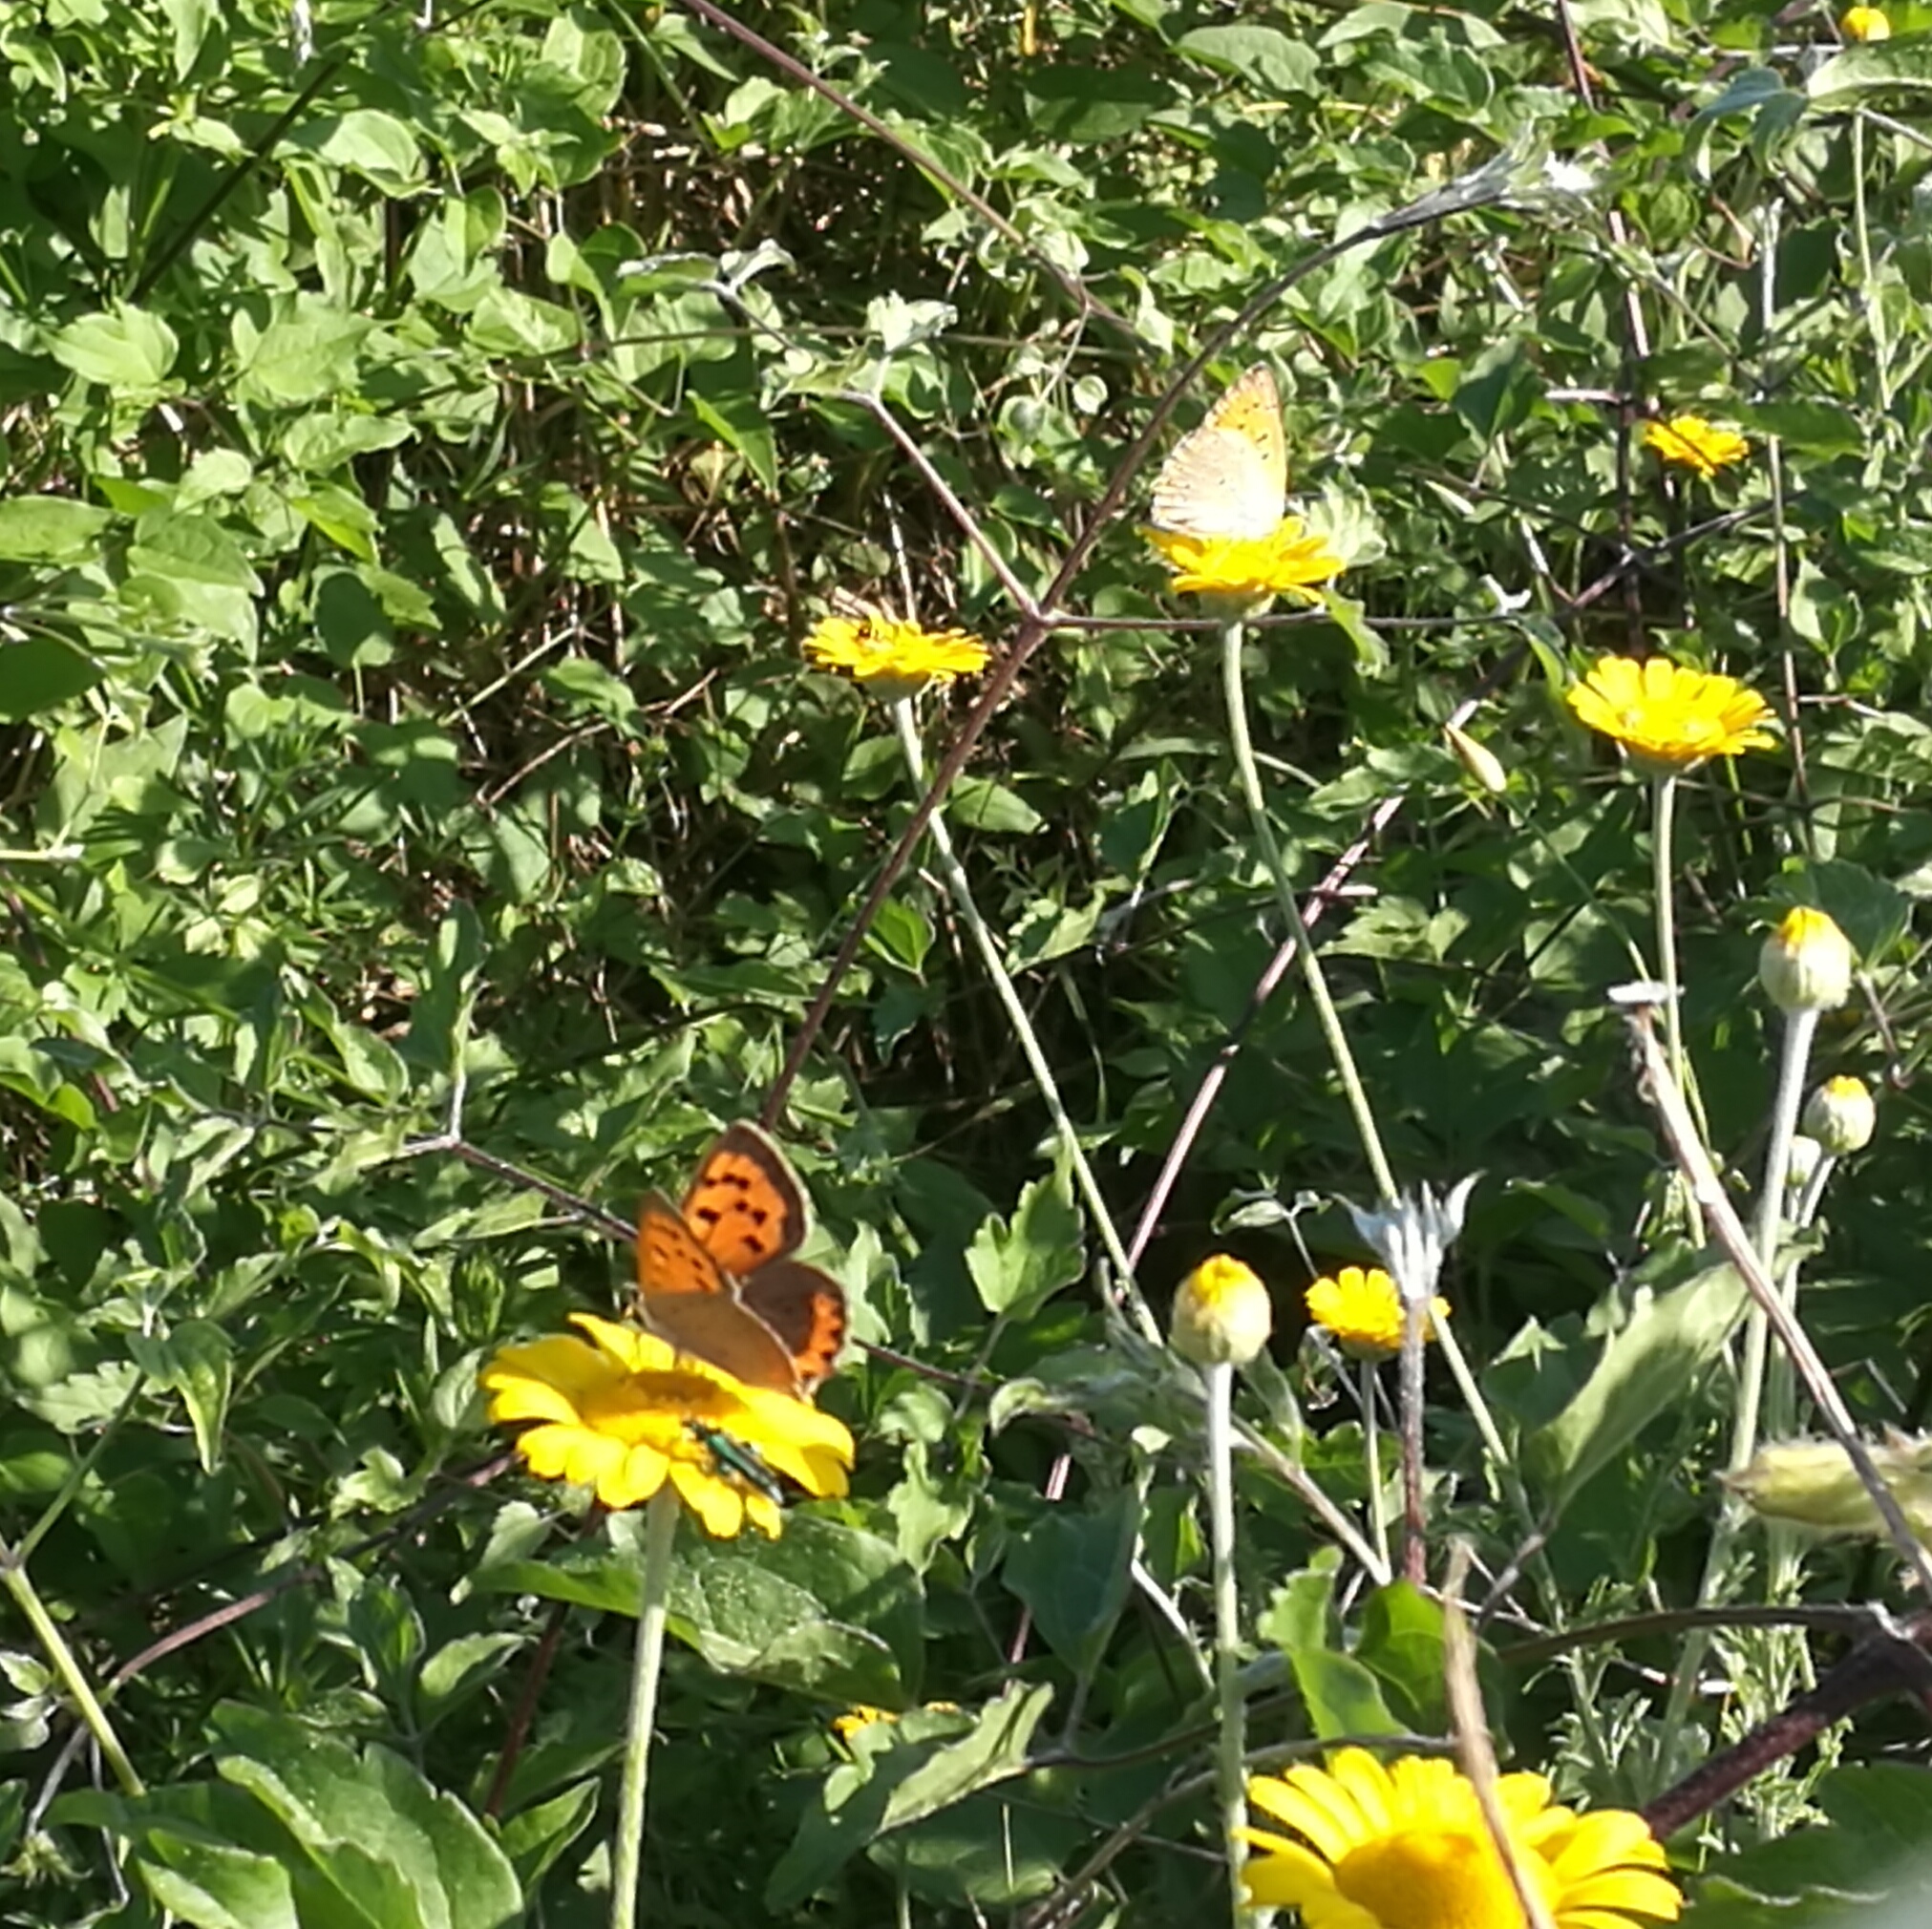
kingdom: Animalia
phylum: Arthropoda
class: Insecta
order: Lepidoptera
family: Lycaenidae
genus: Lycaena
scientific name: Lycaena phlaeas
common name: Small copper
